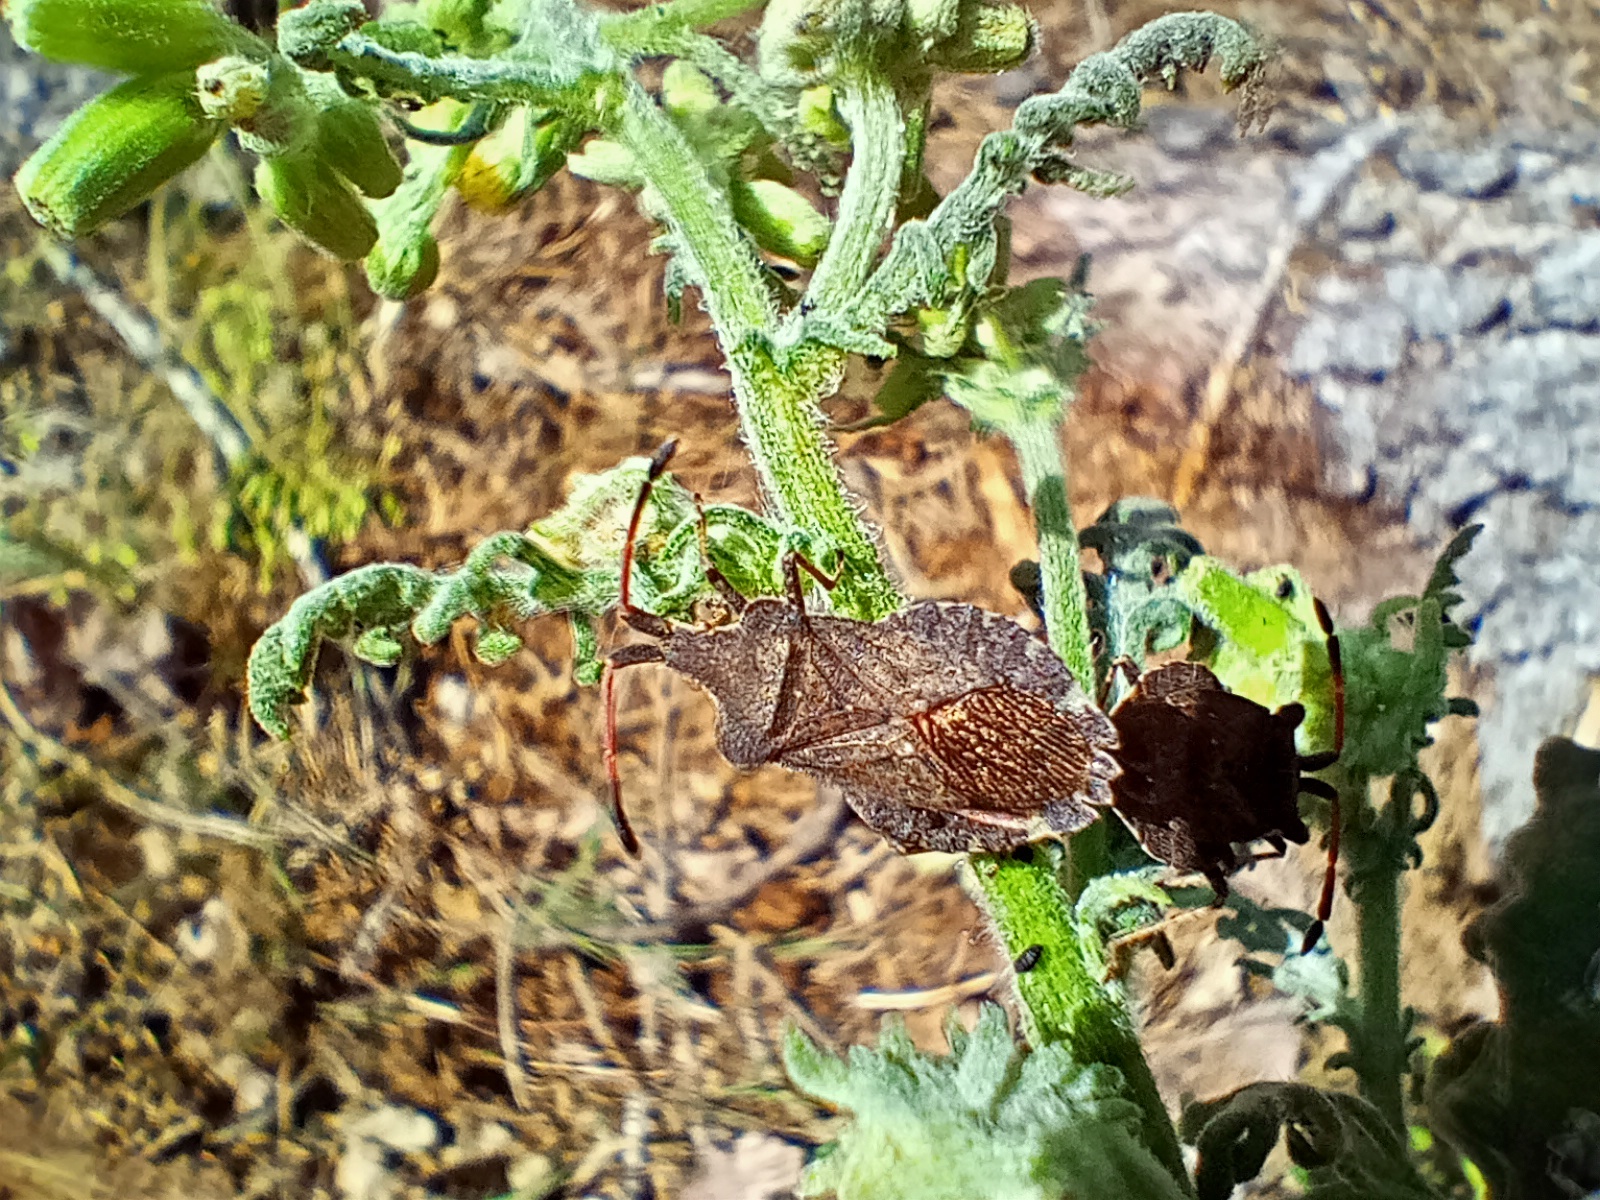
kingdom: Animalia
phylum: Arthropoda
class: Insecta
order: Hemiptera
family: Coreidae
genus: Enoplops
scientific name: Enoplops scapha
